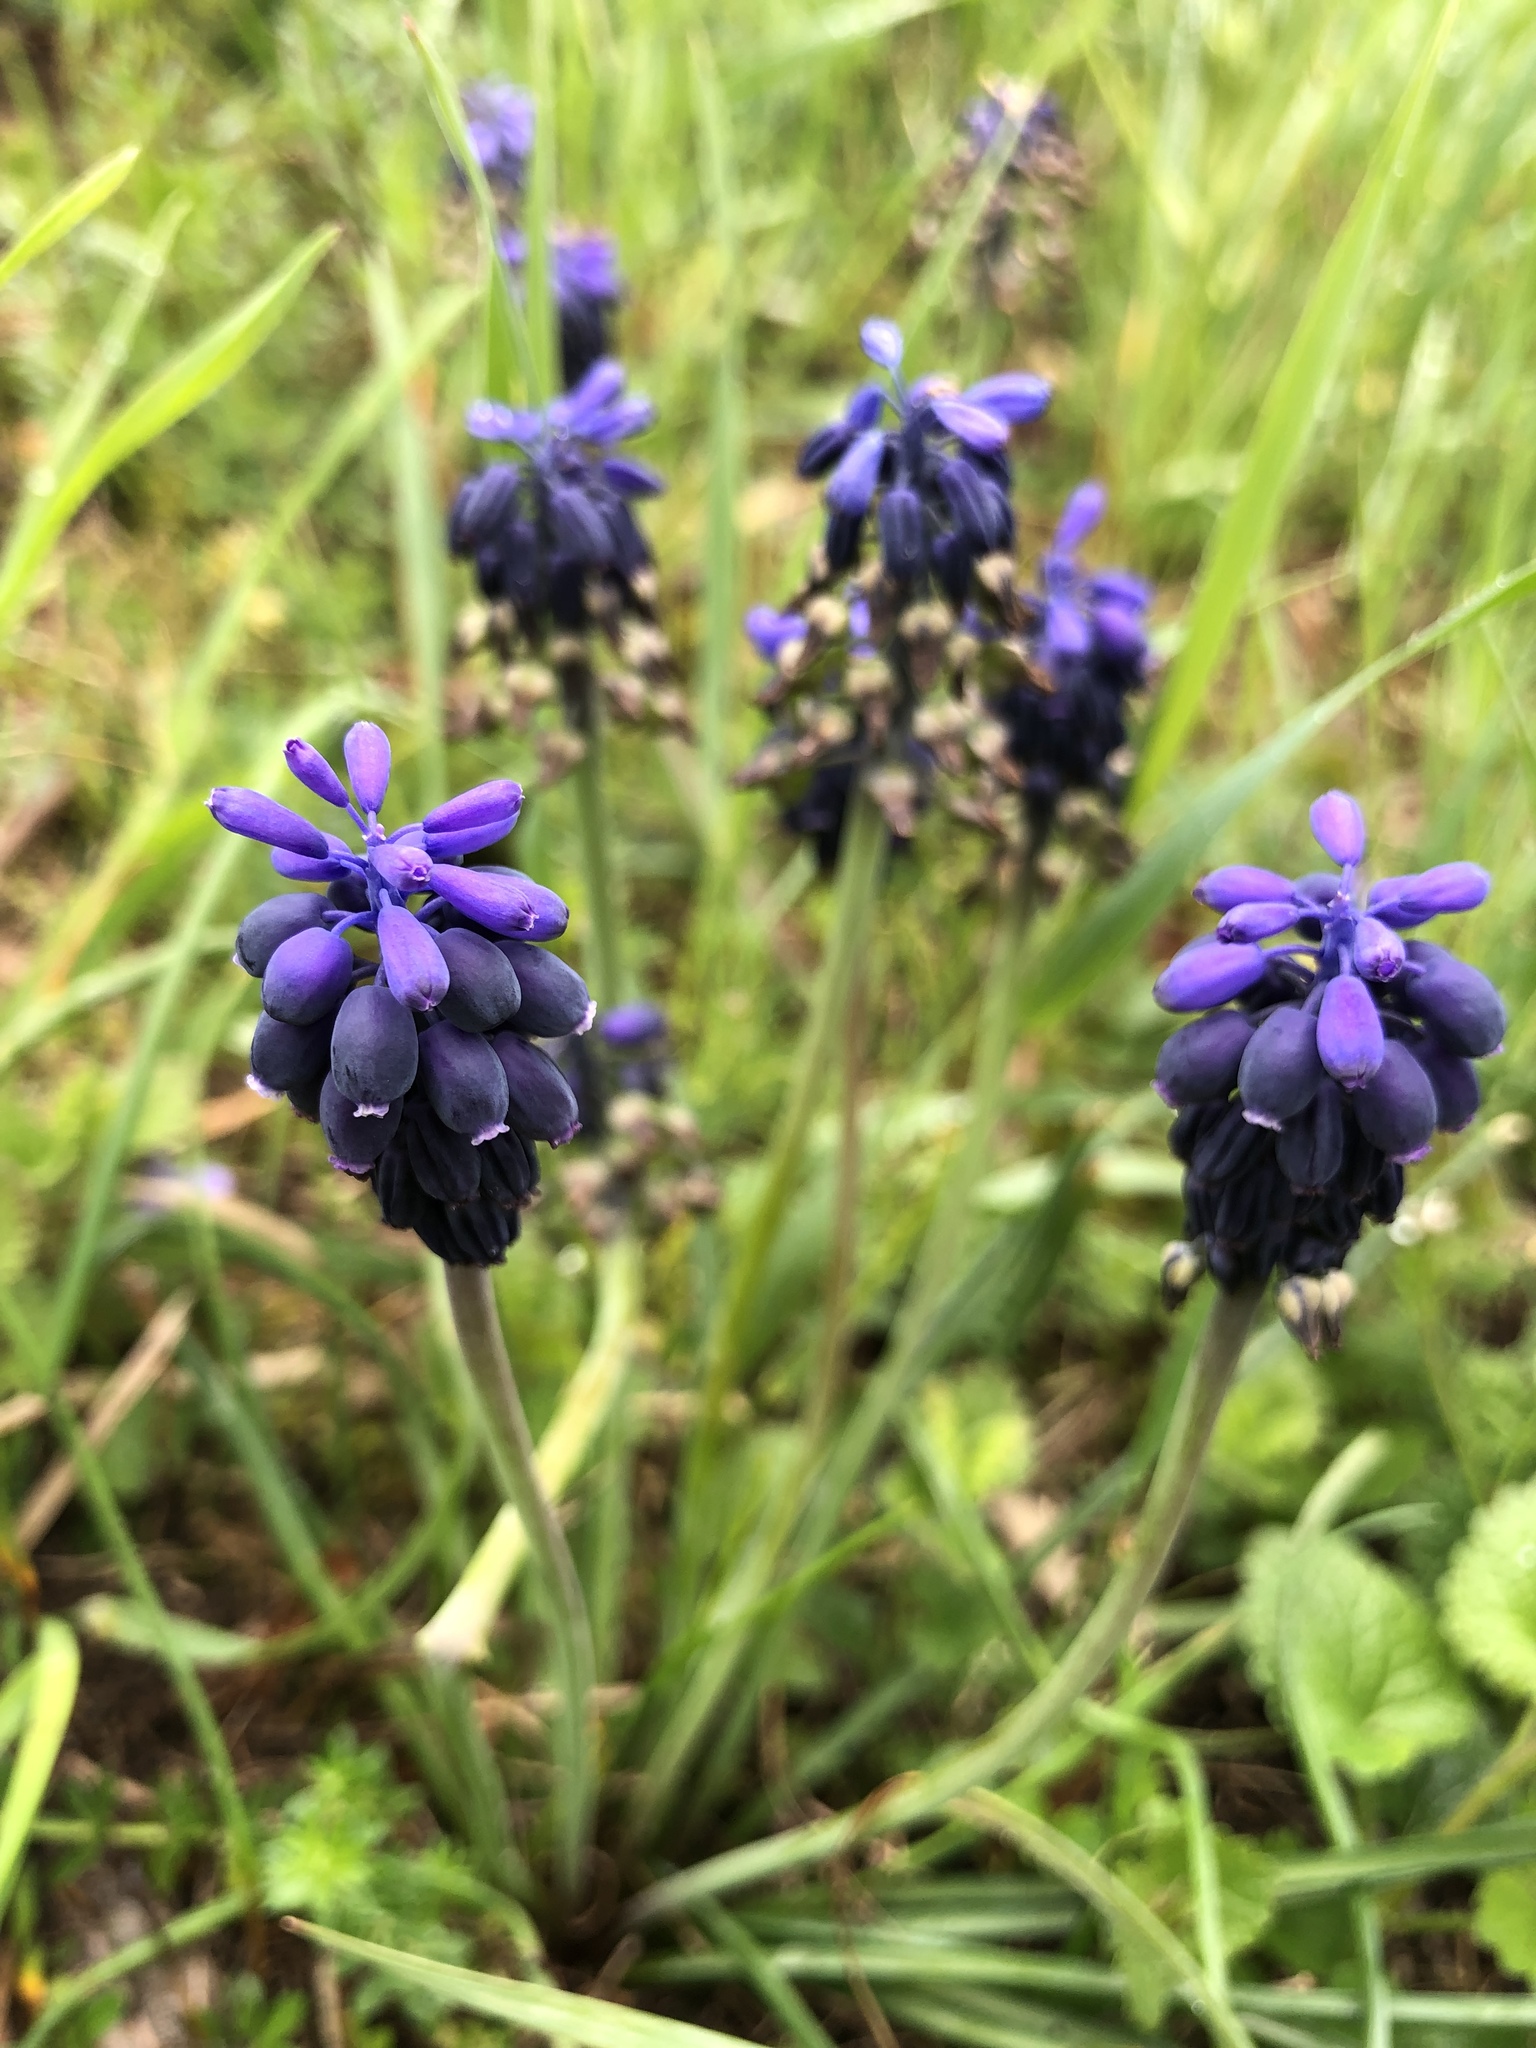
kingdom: Plantae
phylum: Tracheophyta
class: Liliopsida
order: Asparagales
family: Asparagaceae
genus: Muscari
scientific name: Muscari neglectum
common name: Grape-hyacinth
